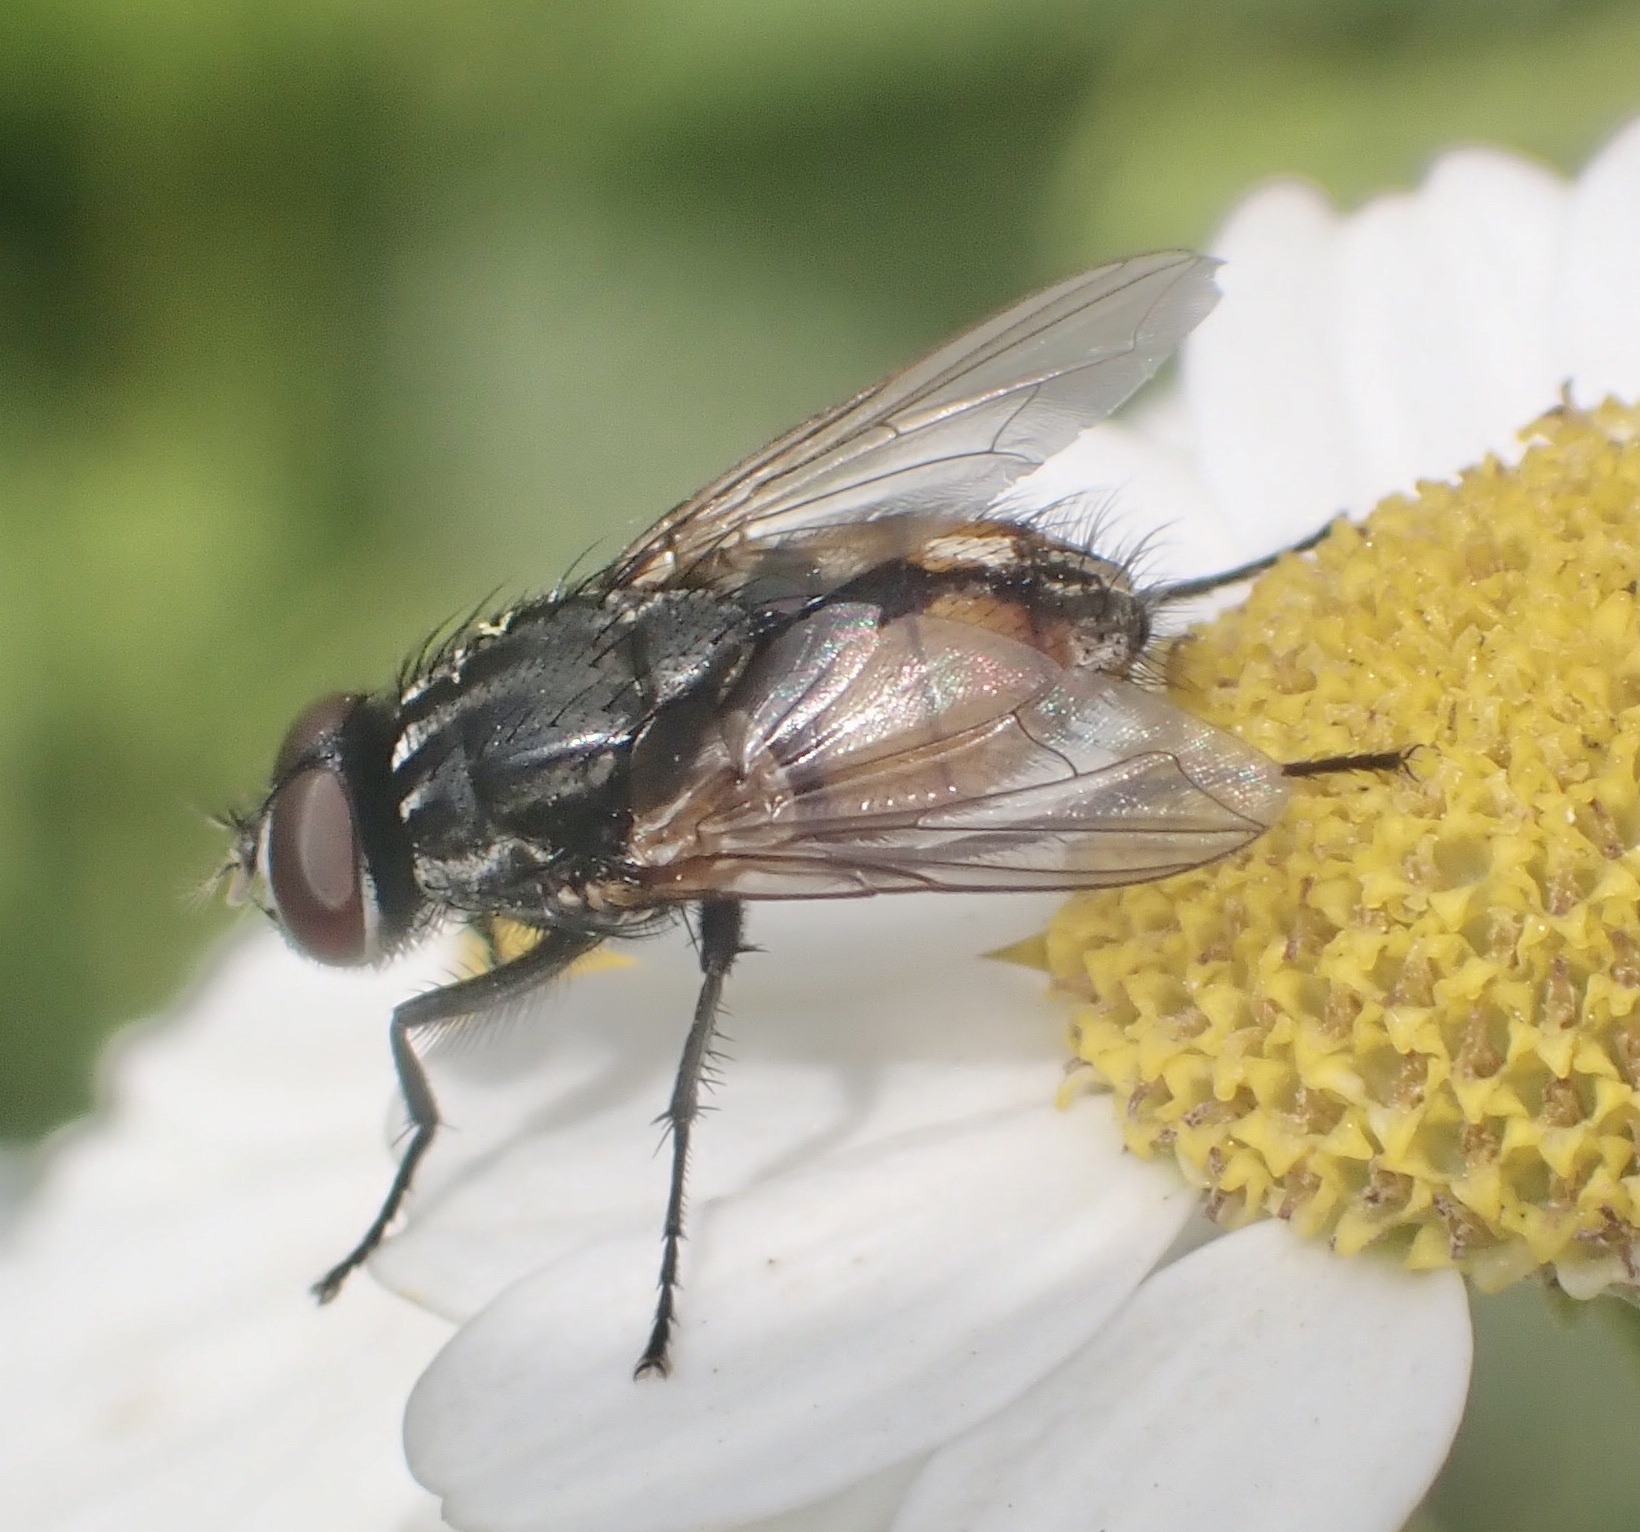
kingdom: Animalia
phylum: Arthropoda
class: Insecta
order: Diptera
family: Muscidae
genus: Musca
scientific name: Musca autumnalis
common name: Face fly
